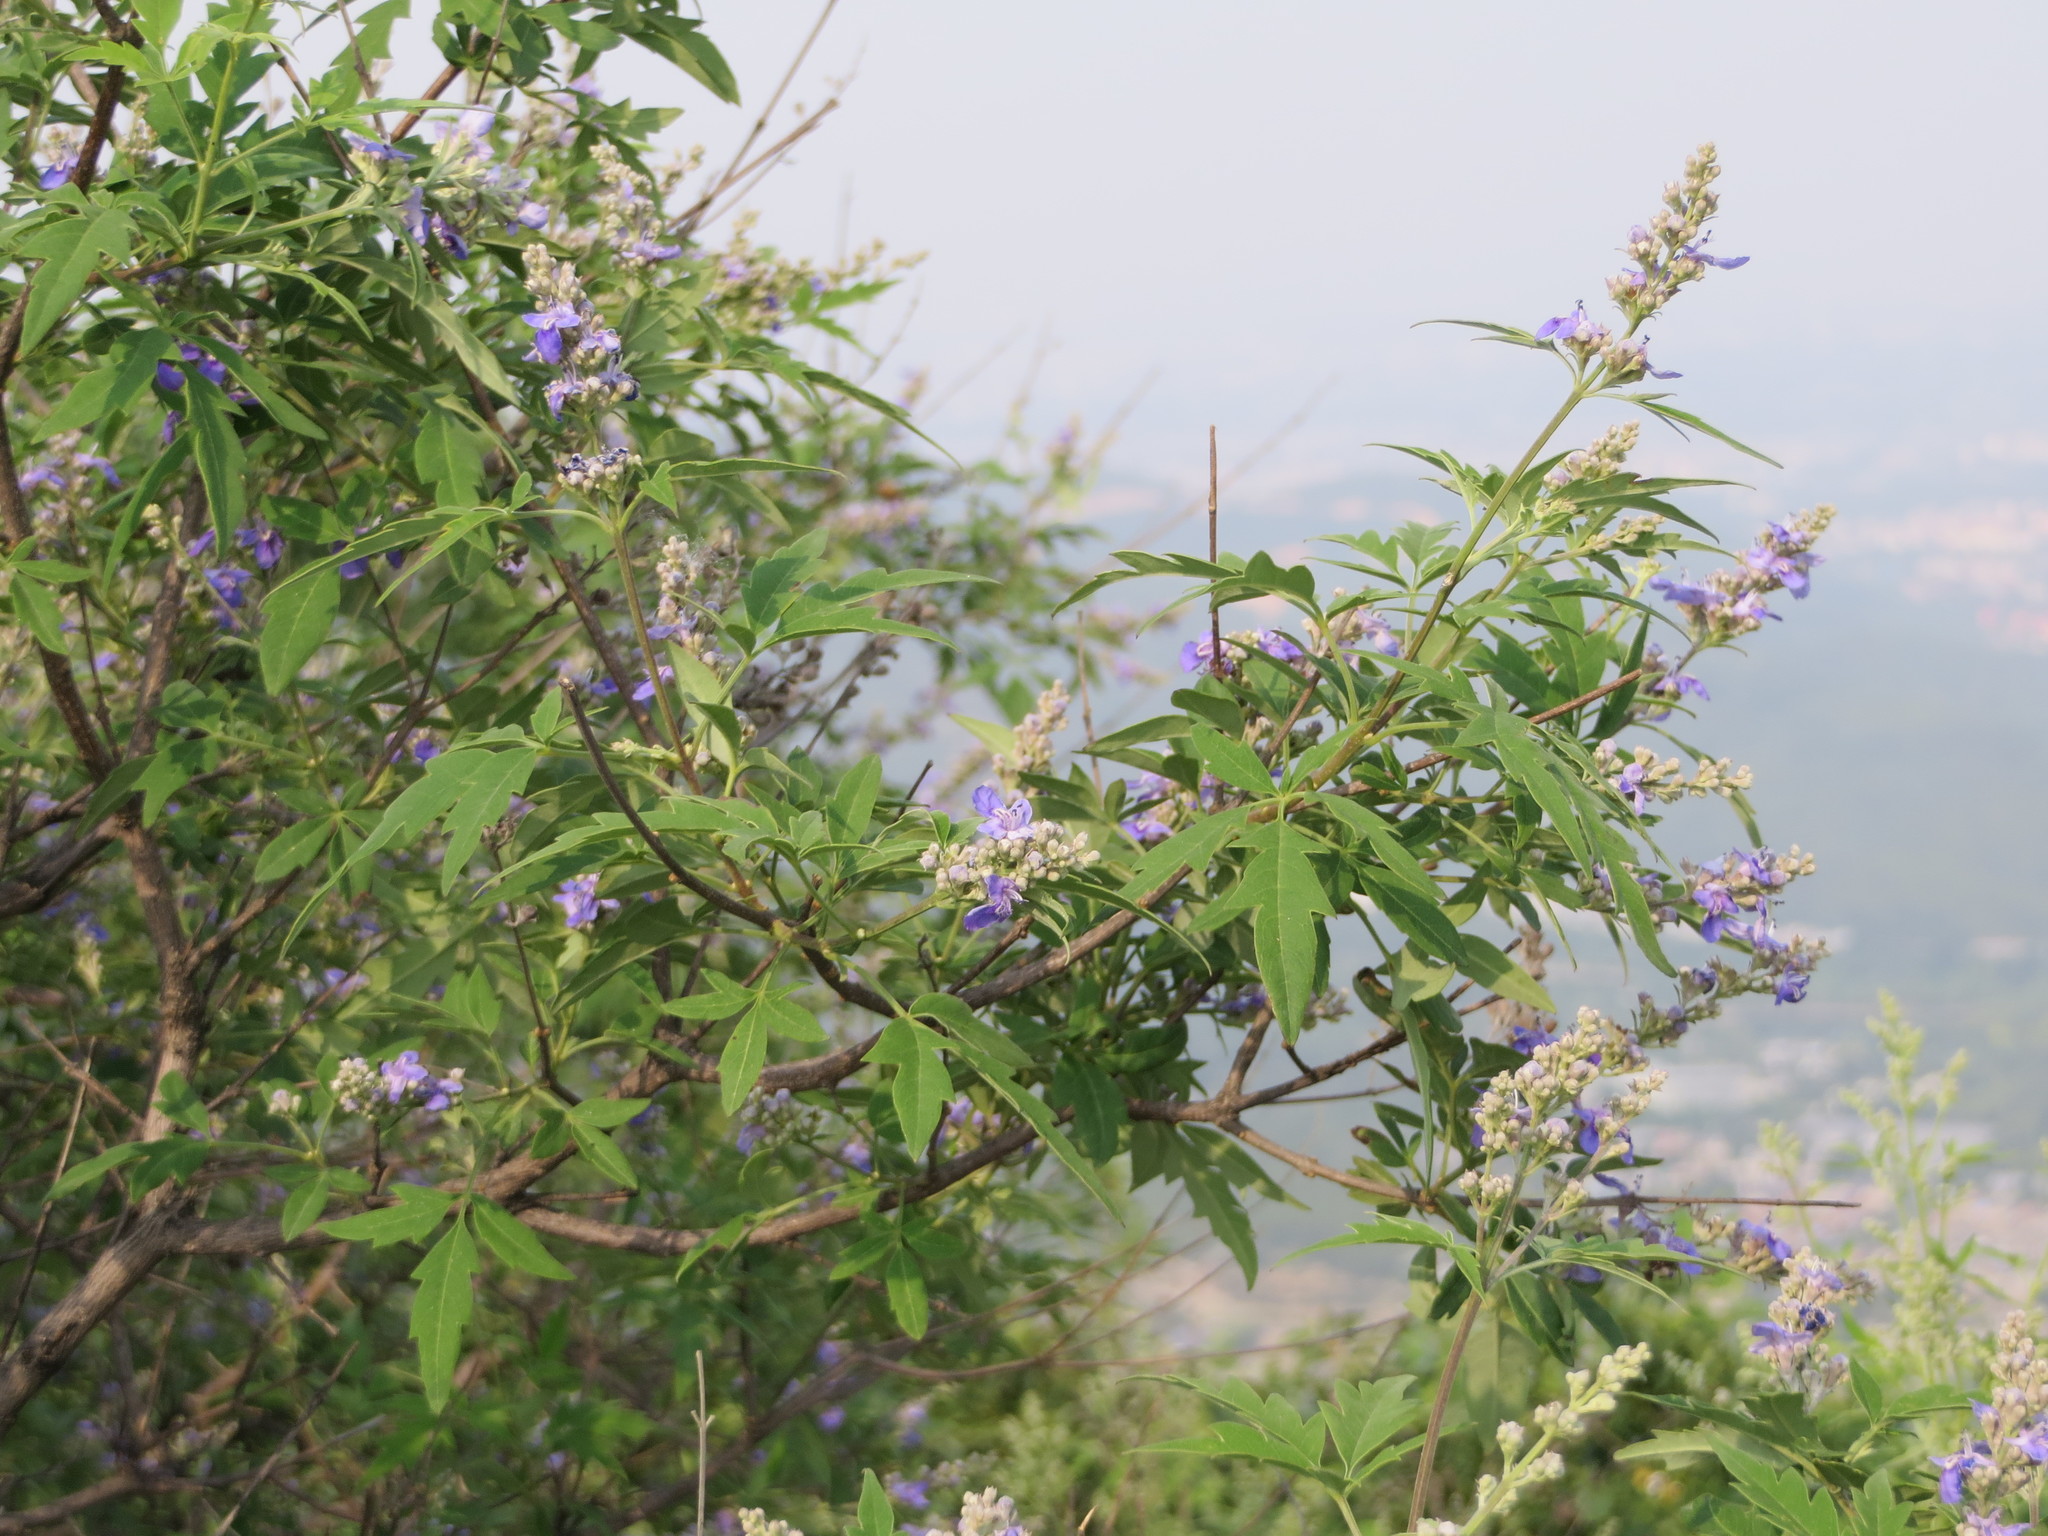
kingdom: Plantae
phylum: Tracheophyta
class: Magnoliopsida
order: Lamiales
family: Lamiaceae
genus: Vitex
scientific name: Vitex negundo
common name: Chinese chastetree
